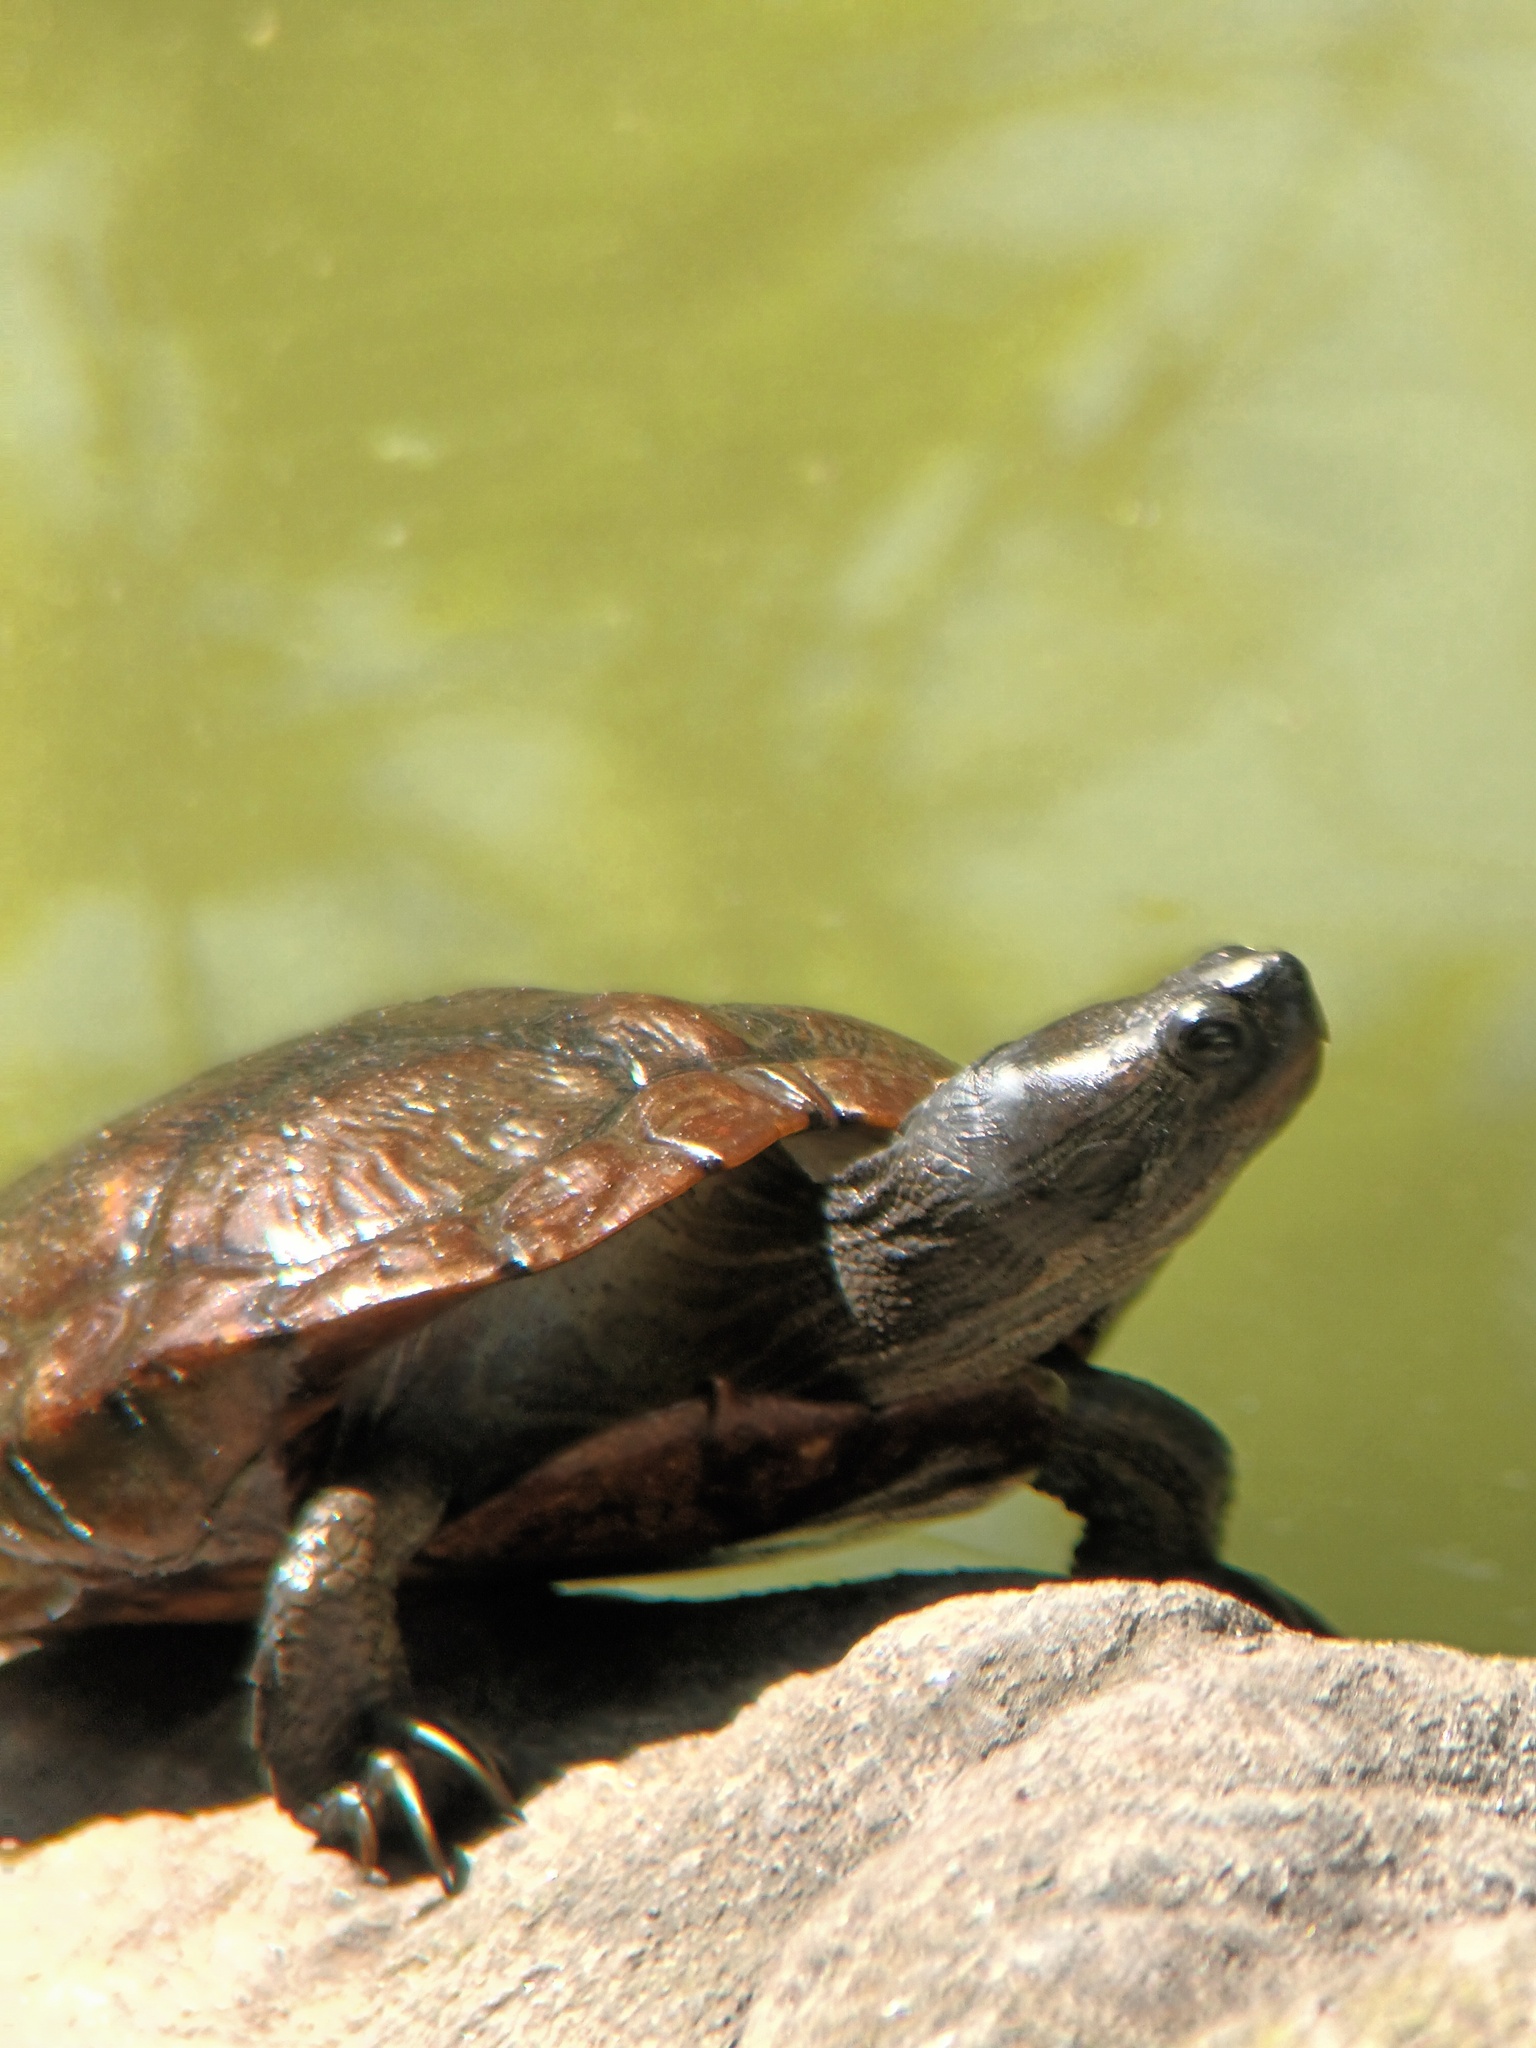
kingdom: Animalia
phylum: Chordata
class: Testudines
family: Emydidae
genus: Trachemys
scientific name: Trachemys scripta
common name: Slider
